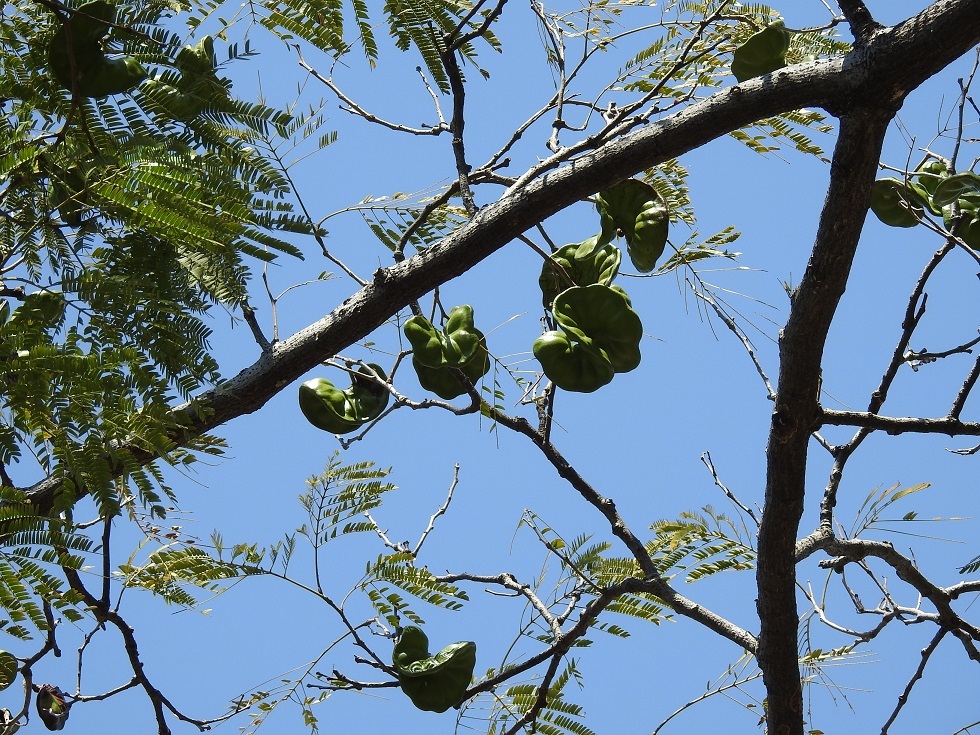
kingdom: Plantae
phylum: Tracheophyta
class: Magnoliopsida
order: Fabales
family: Fabaceae
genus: Enterolobium
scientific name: Enterolobium cyclocarpum
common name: Ear tree
